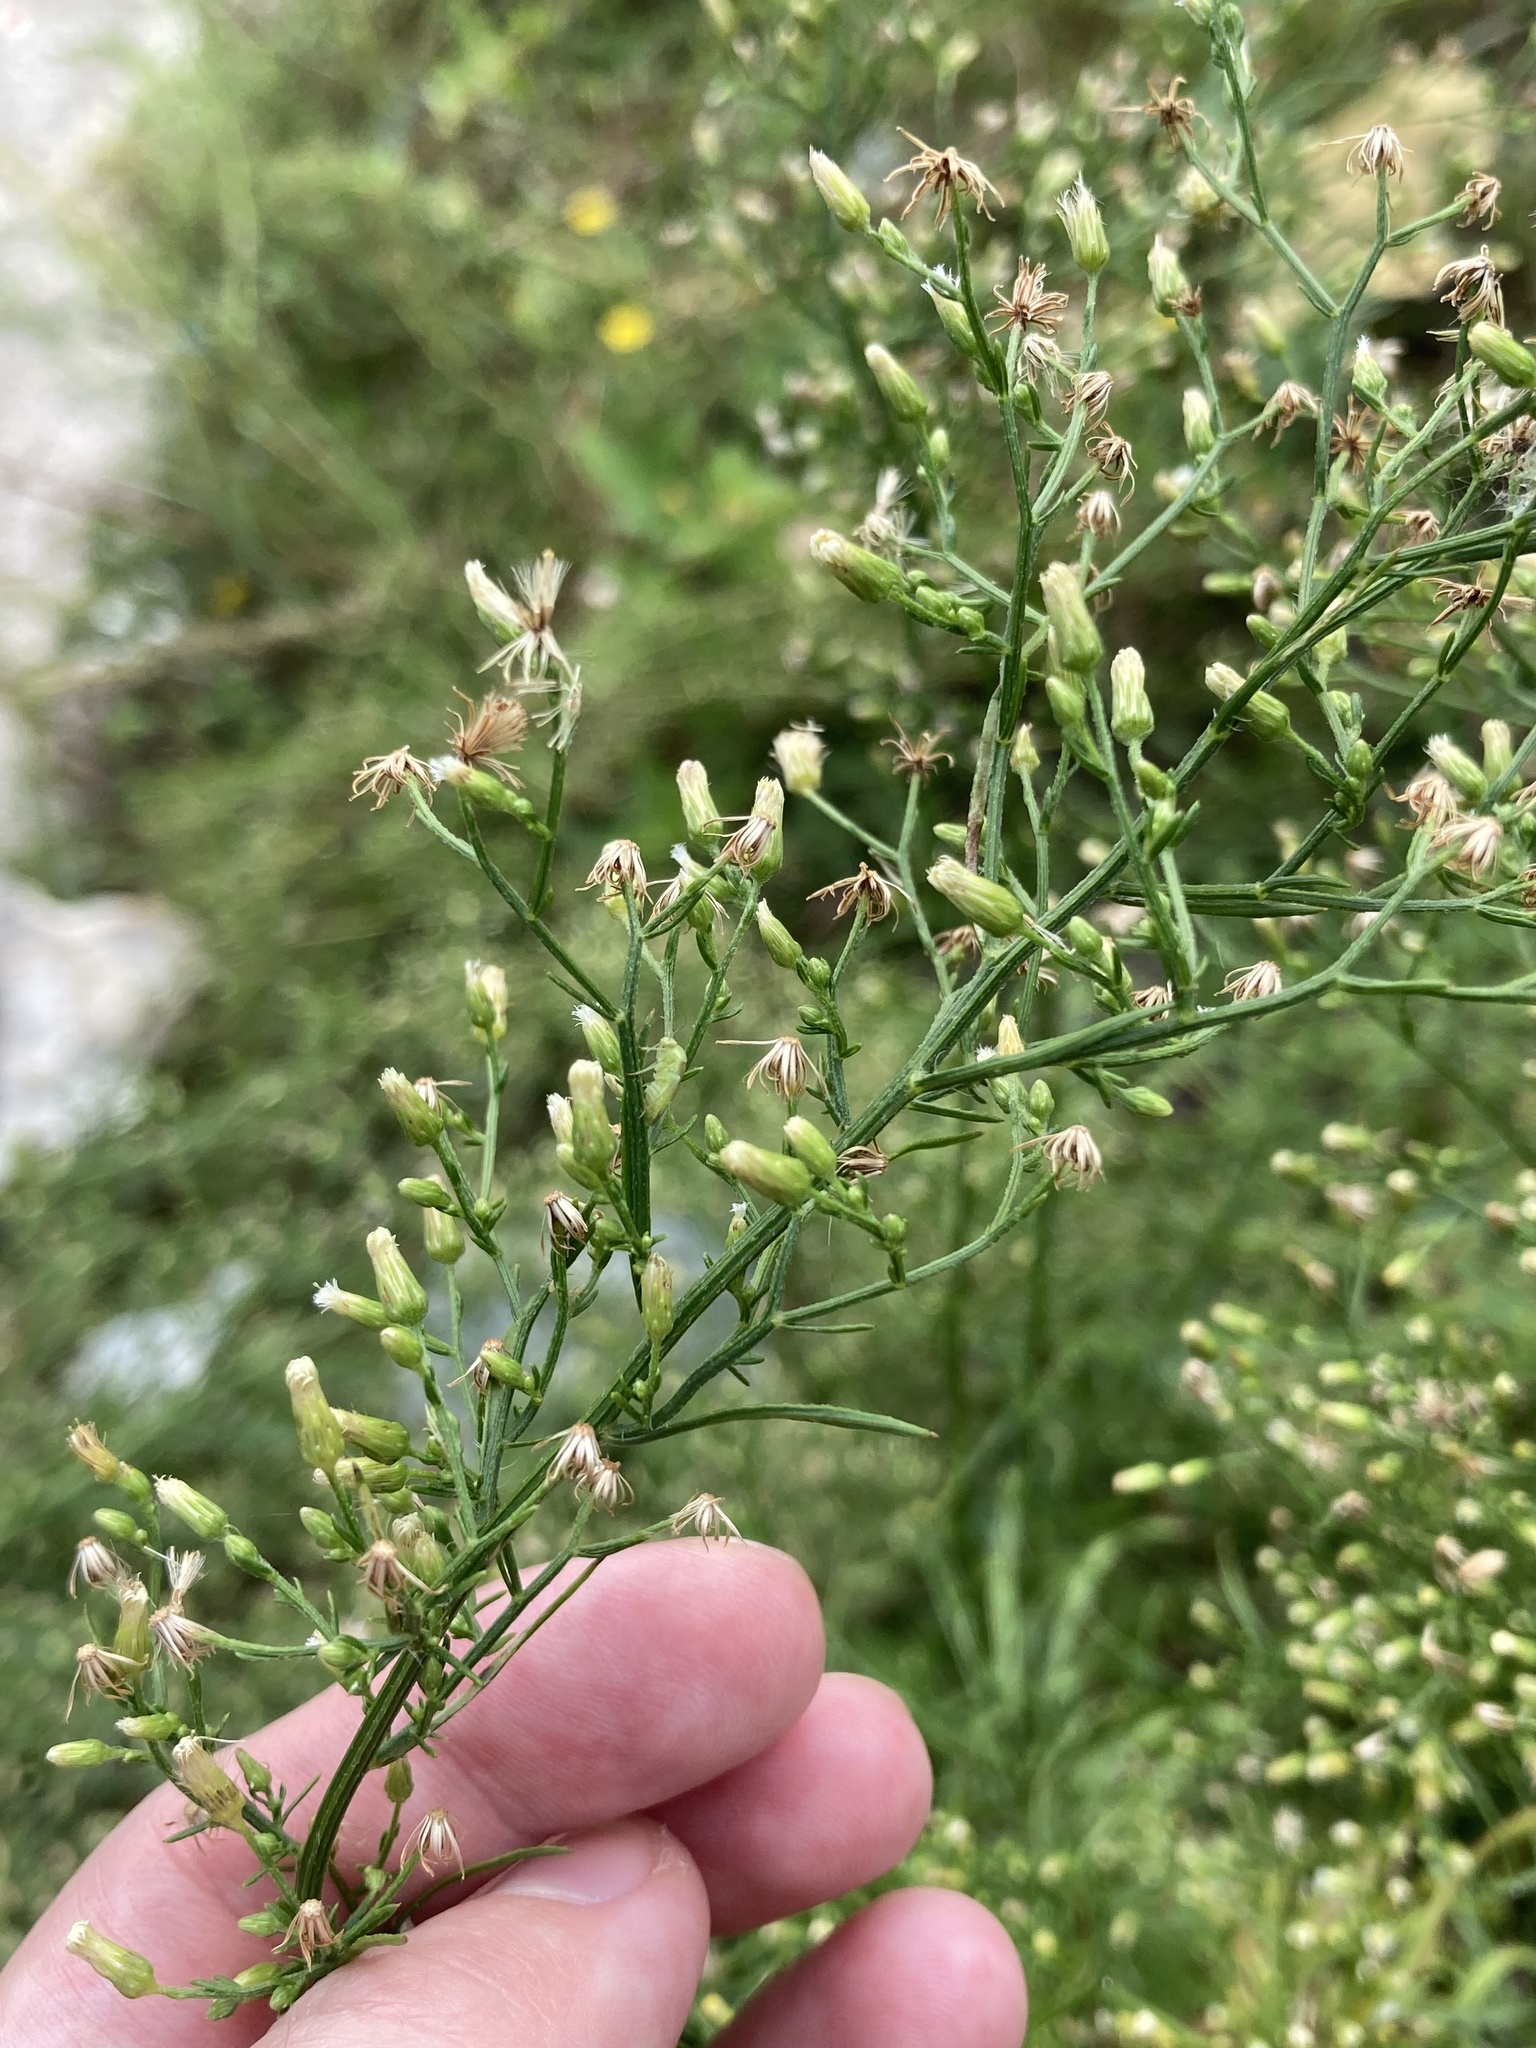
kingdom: Plantae
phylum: Tracheophyta
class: Magnoliopsida
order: Asterales
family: Asteraceae
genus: Erigeron
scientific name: Erigeron canadensis
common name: Canadian fleabane
